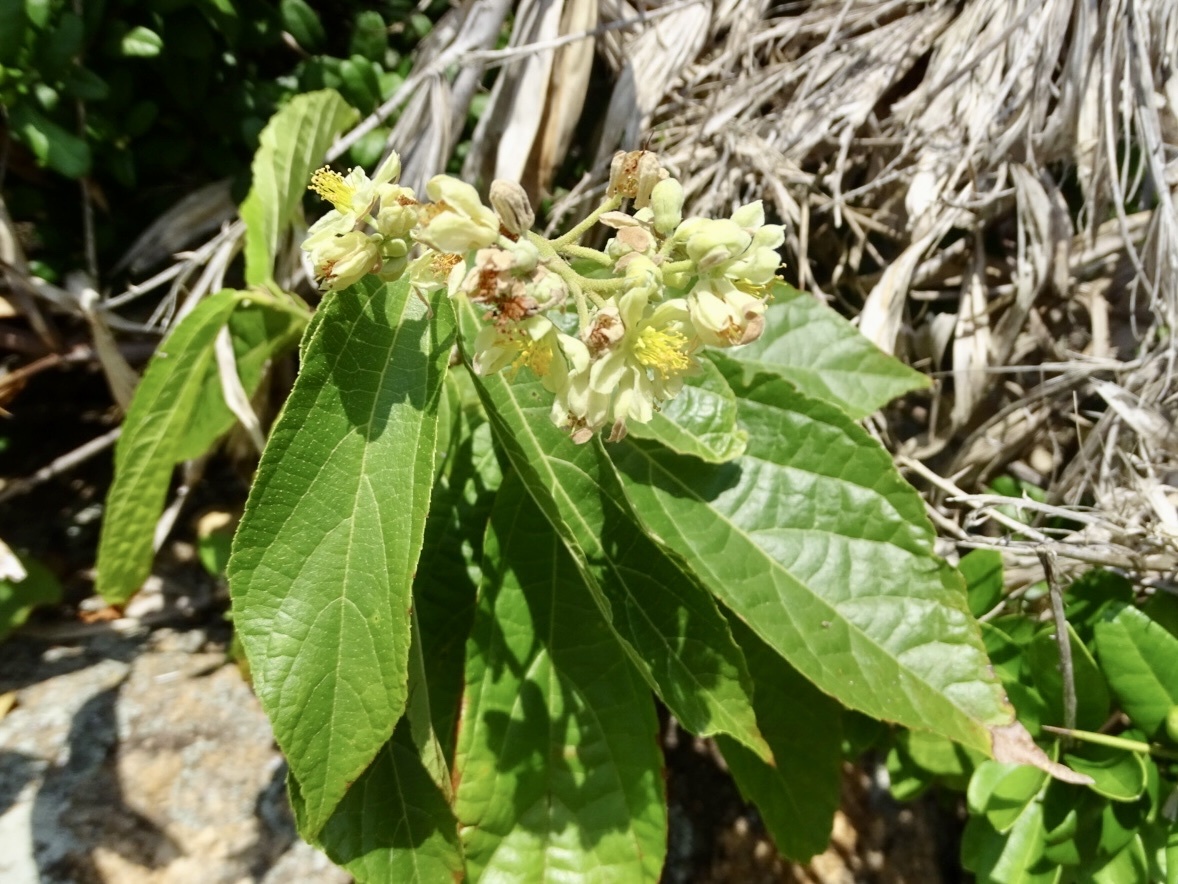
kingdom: Plantae
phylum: Tracheophyta
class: Magnoliopsida
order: Malvales
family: Malvaceae
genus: Microcos
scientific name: Microcos paniculata
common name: Microcos
